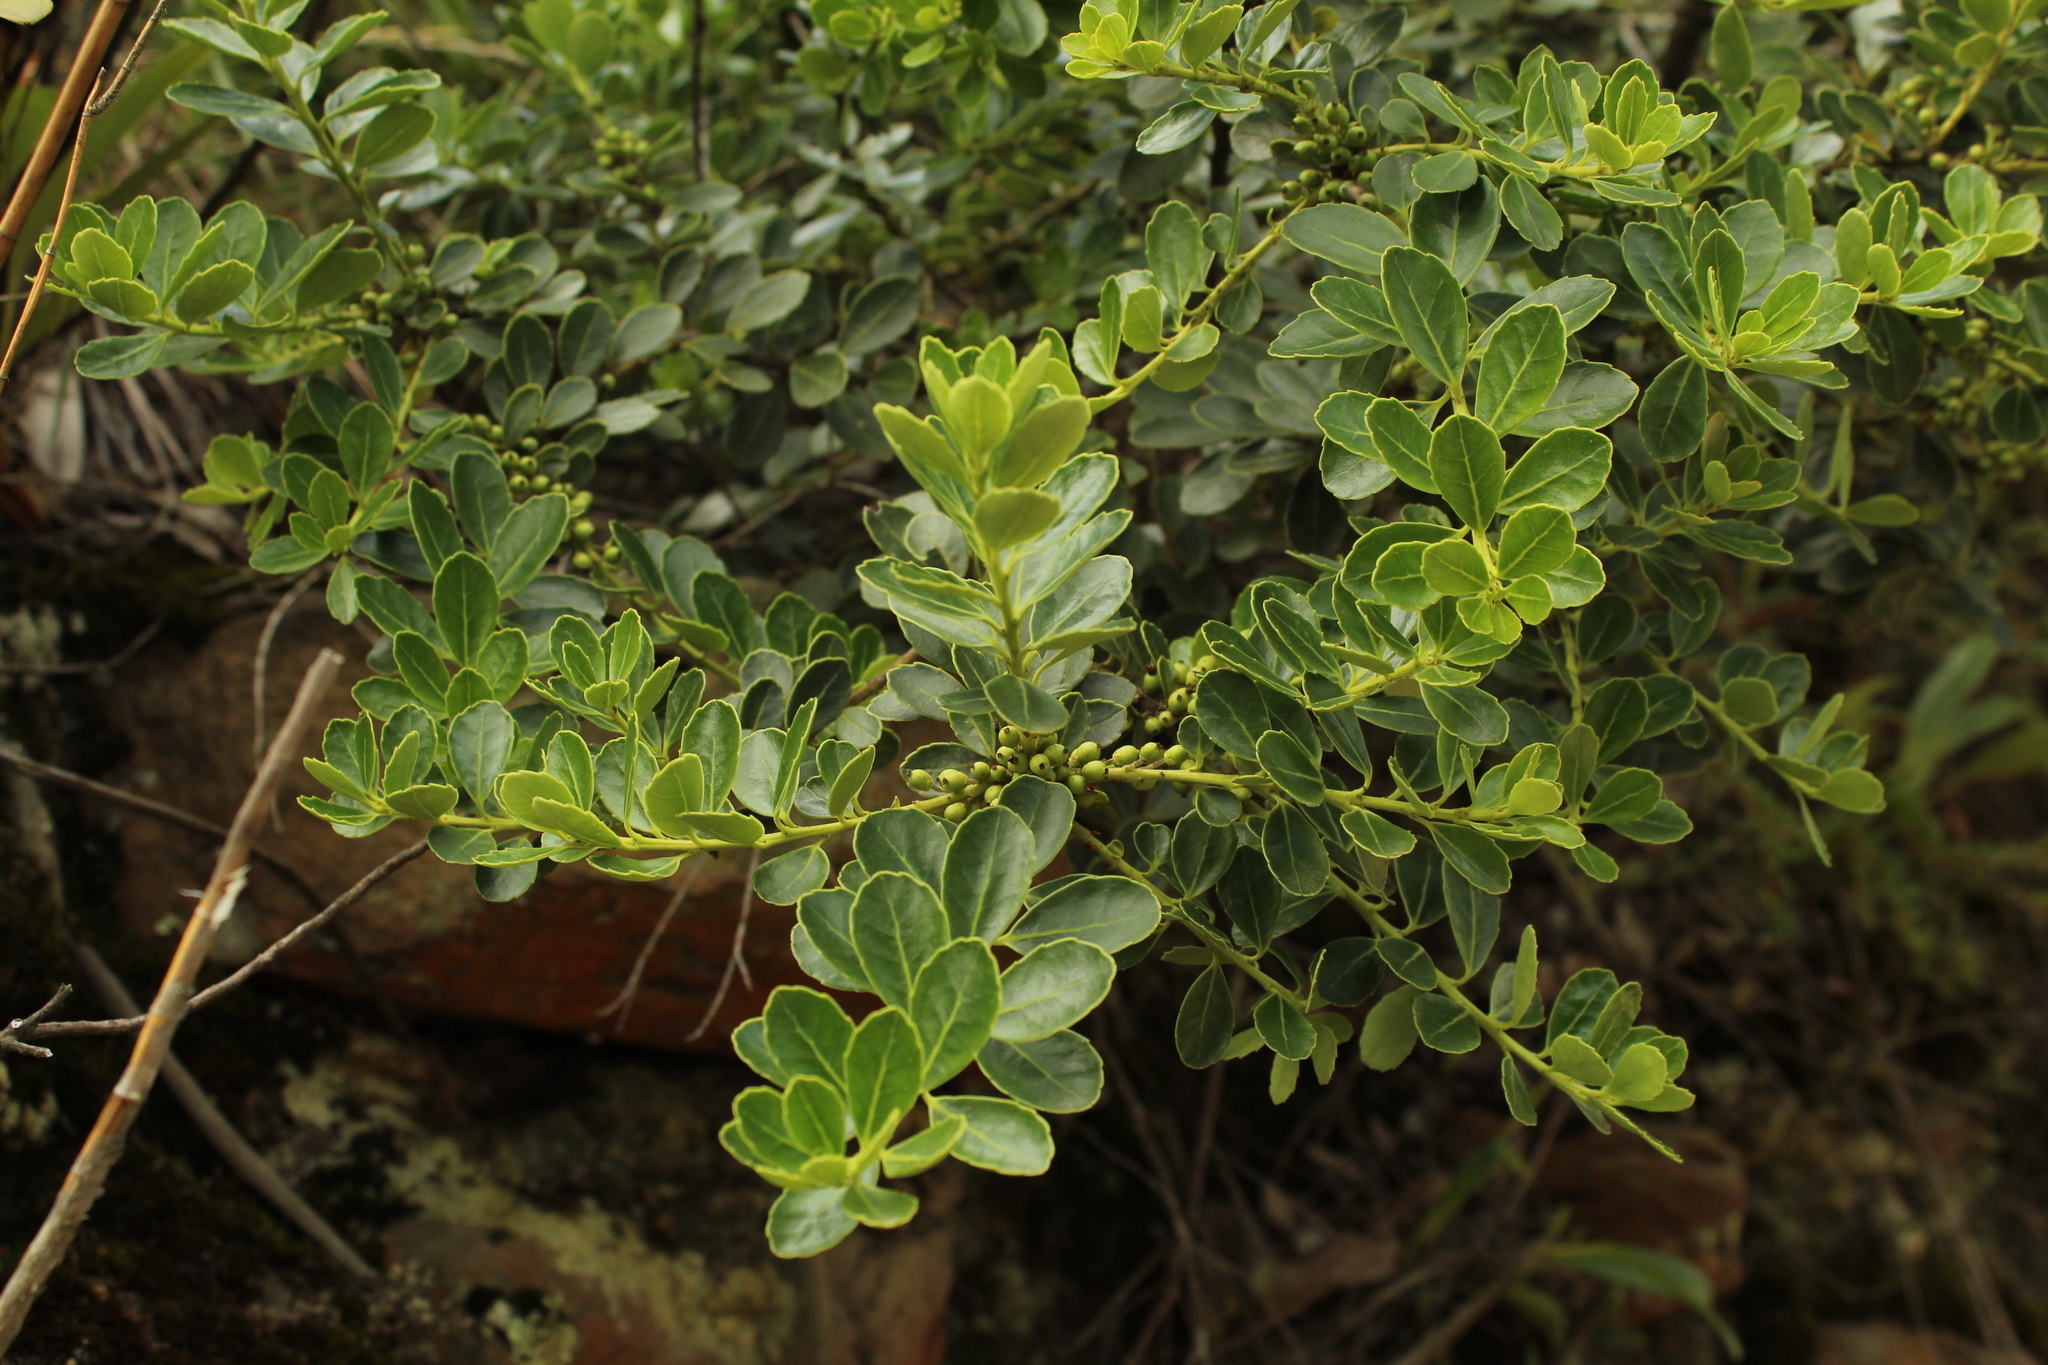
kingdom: Plantae
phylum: Tracheophyta
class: Magnoliopsida
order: Aquifoliales
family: Aquifoliaceae
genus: Ilex
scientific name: Ilex microphylla
